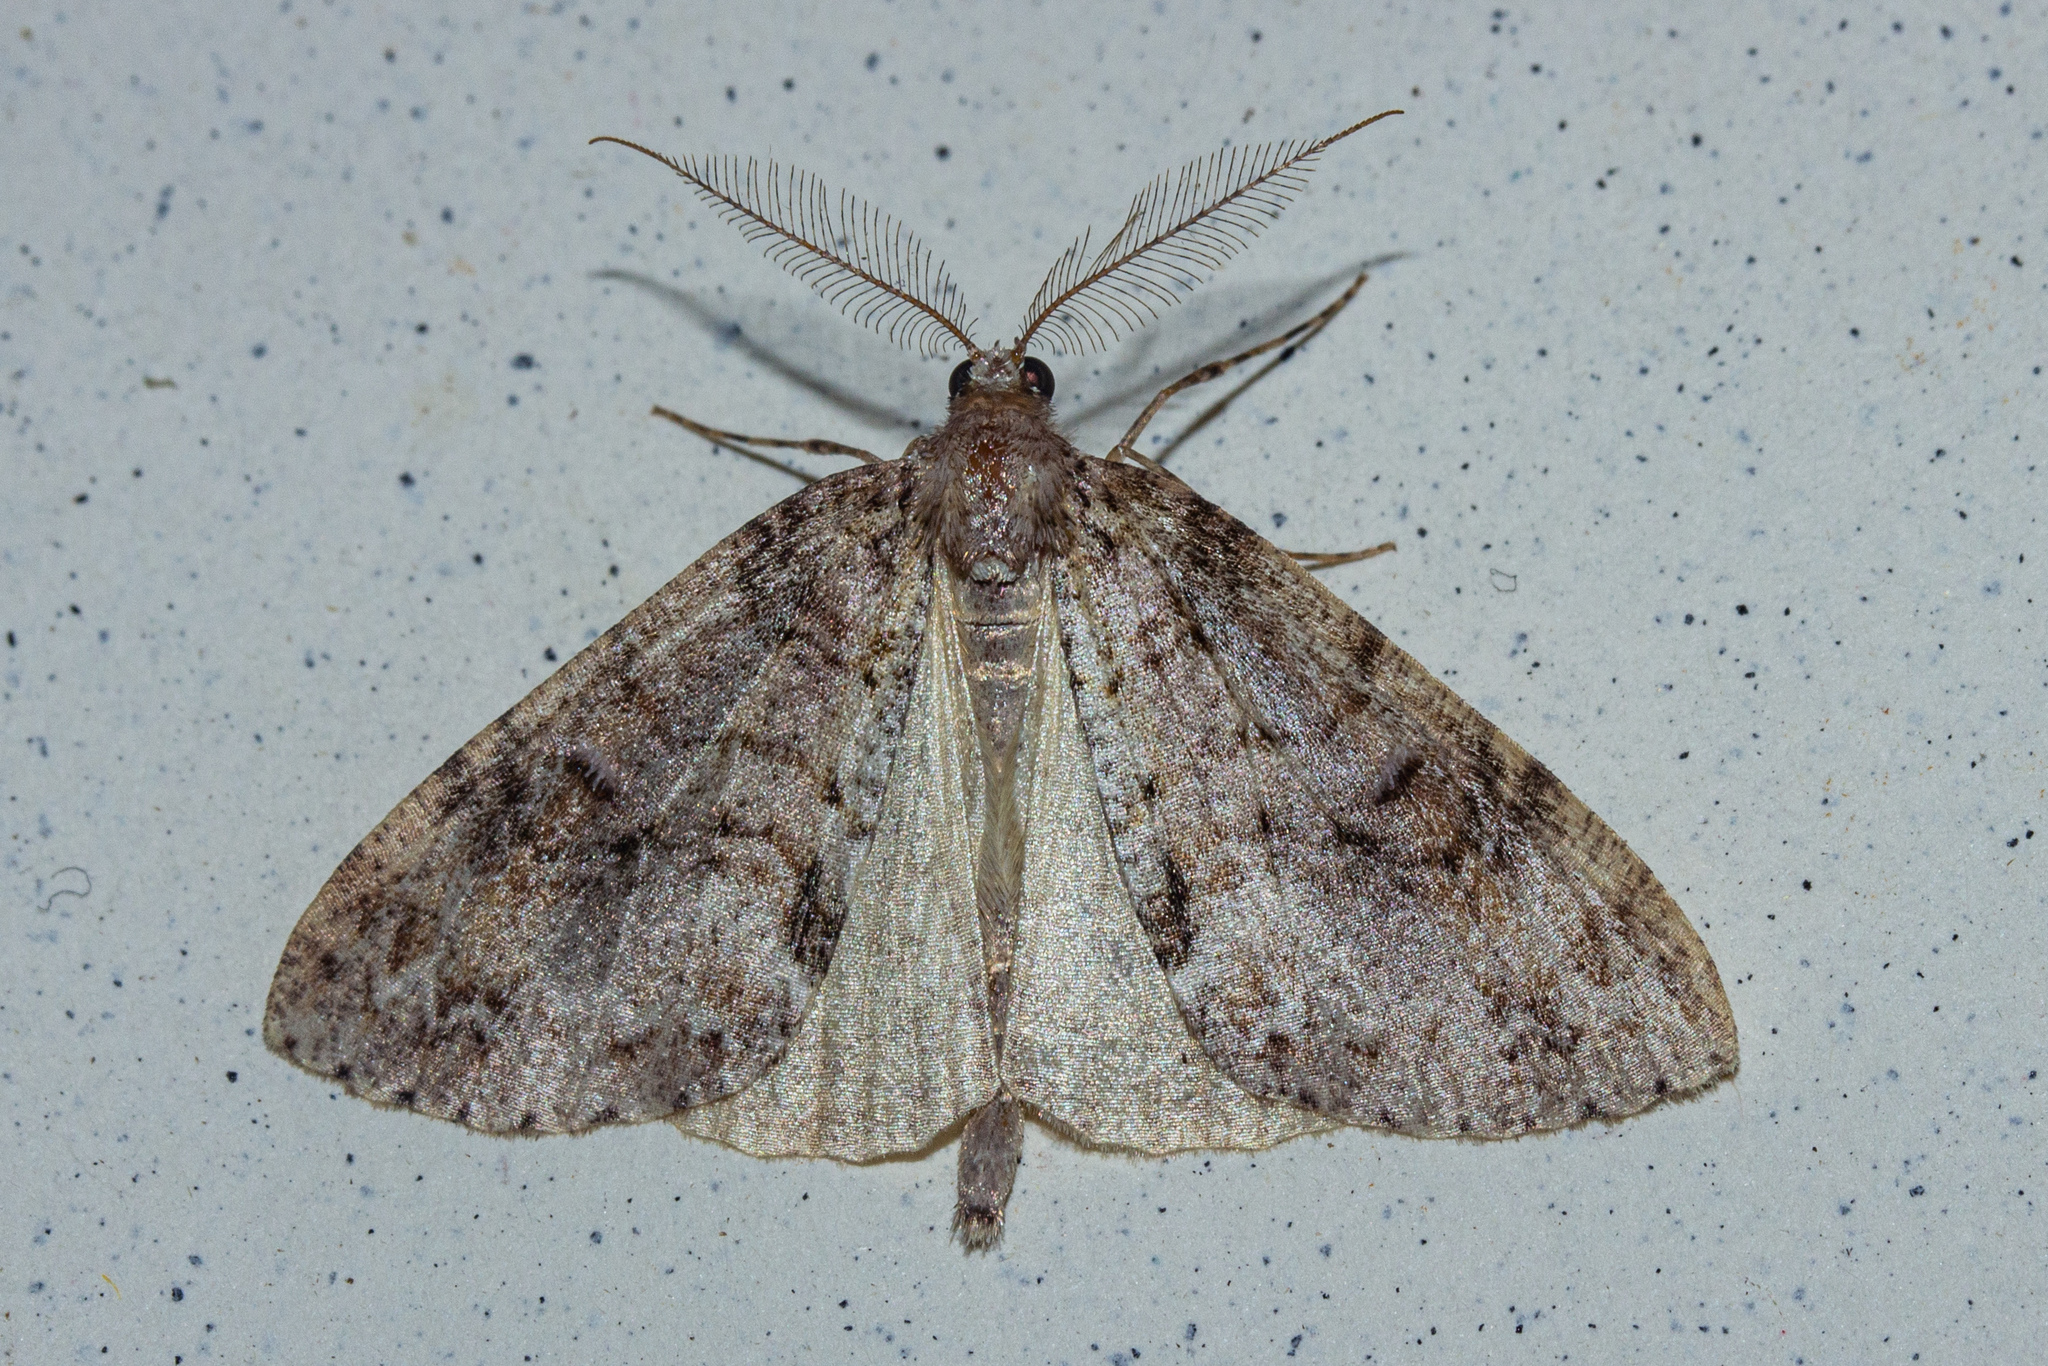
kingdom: Animalia
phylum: Arthropoda
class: Insecta
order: Lepidoptera
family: Geometridae
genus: Pseudocoremia
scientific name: Pseudocoremia suavis
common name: Common forest looper
